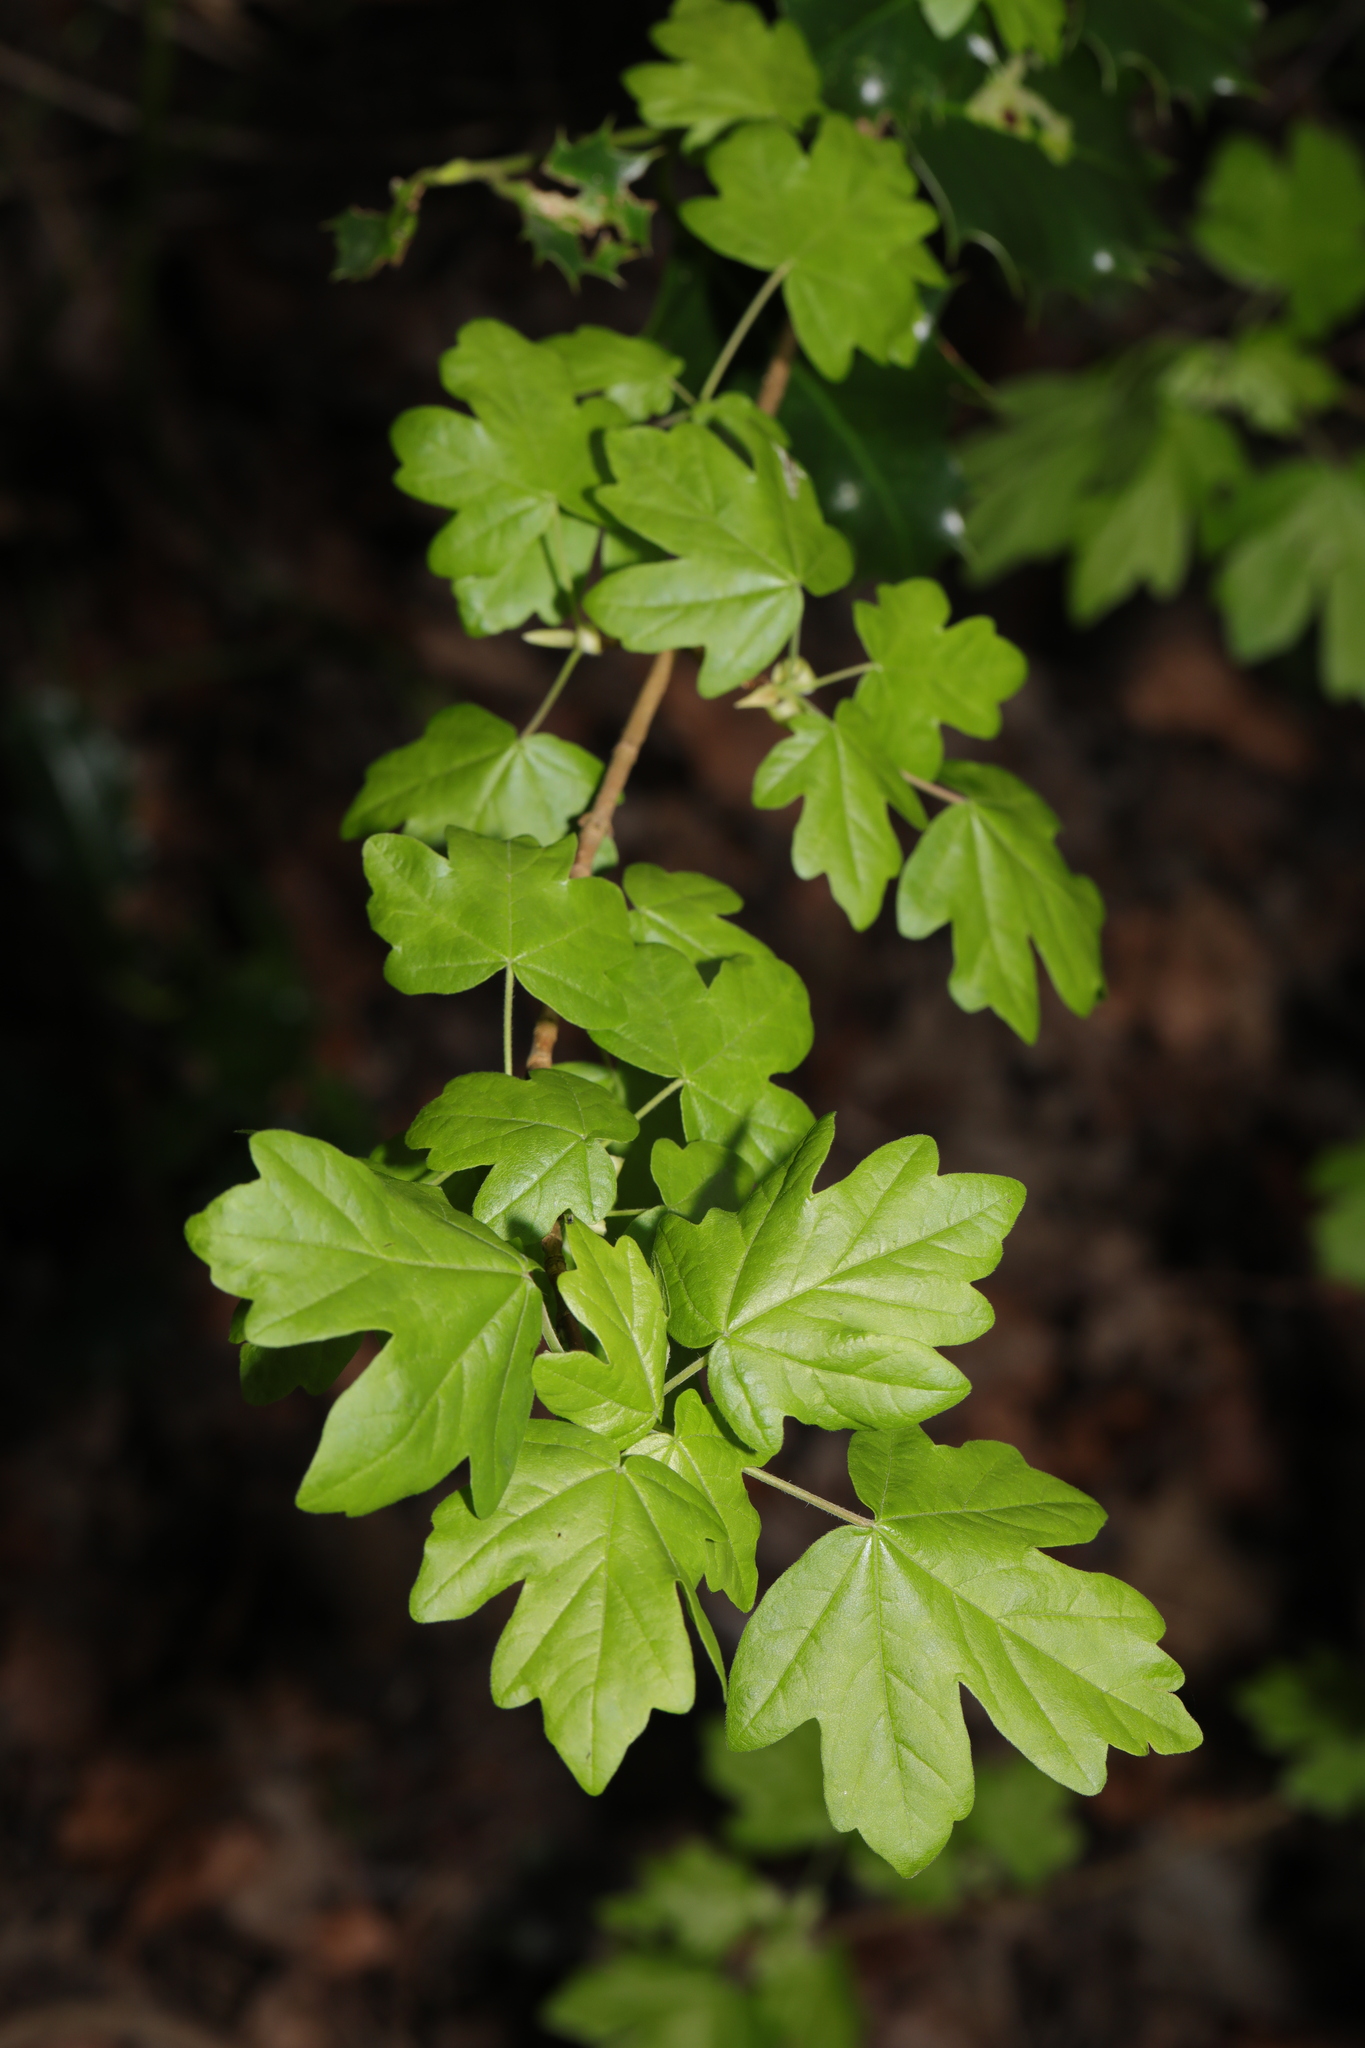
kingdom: Plantae
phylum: Tracheophyta
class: Magnoliopsida
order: Sapindales
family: Sapindaceae
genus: Acer
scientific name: Acer campestre
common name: Field maple
